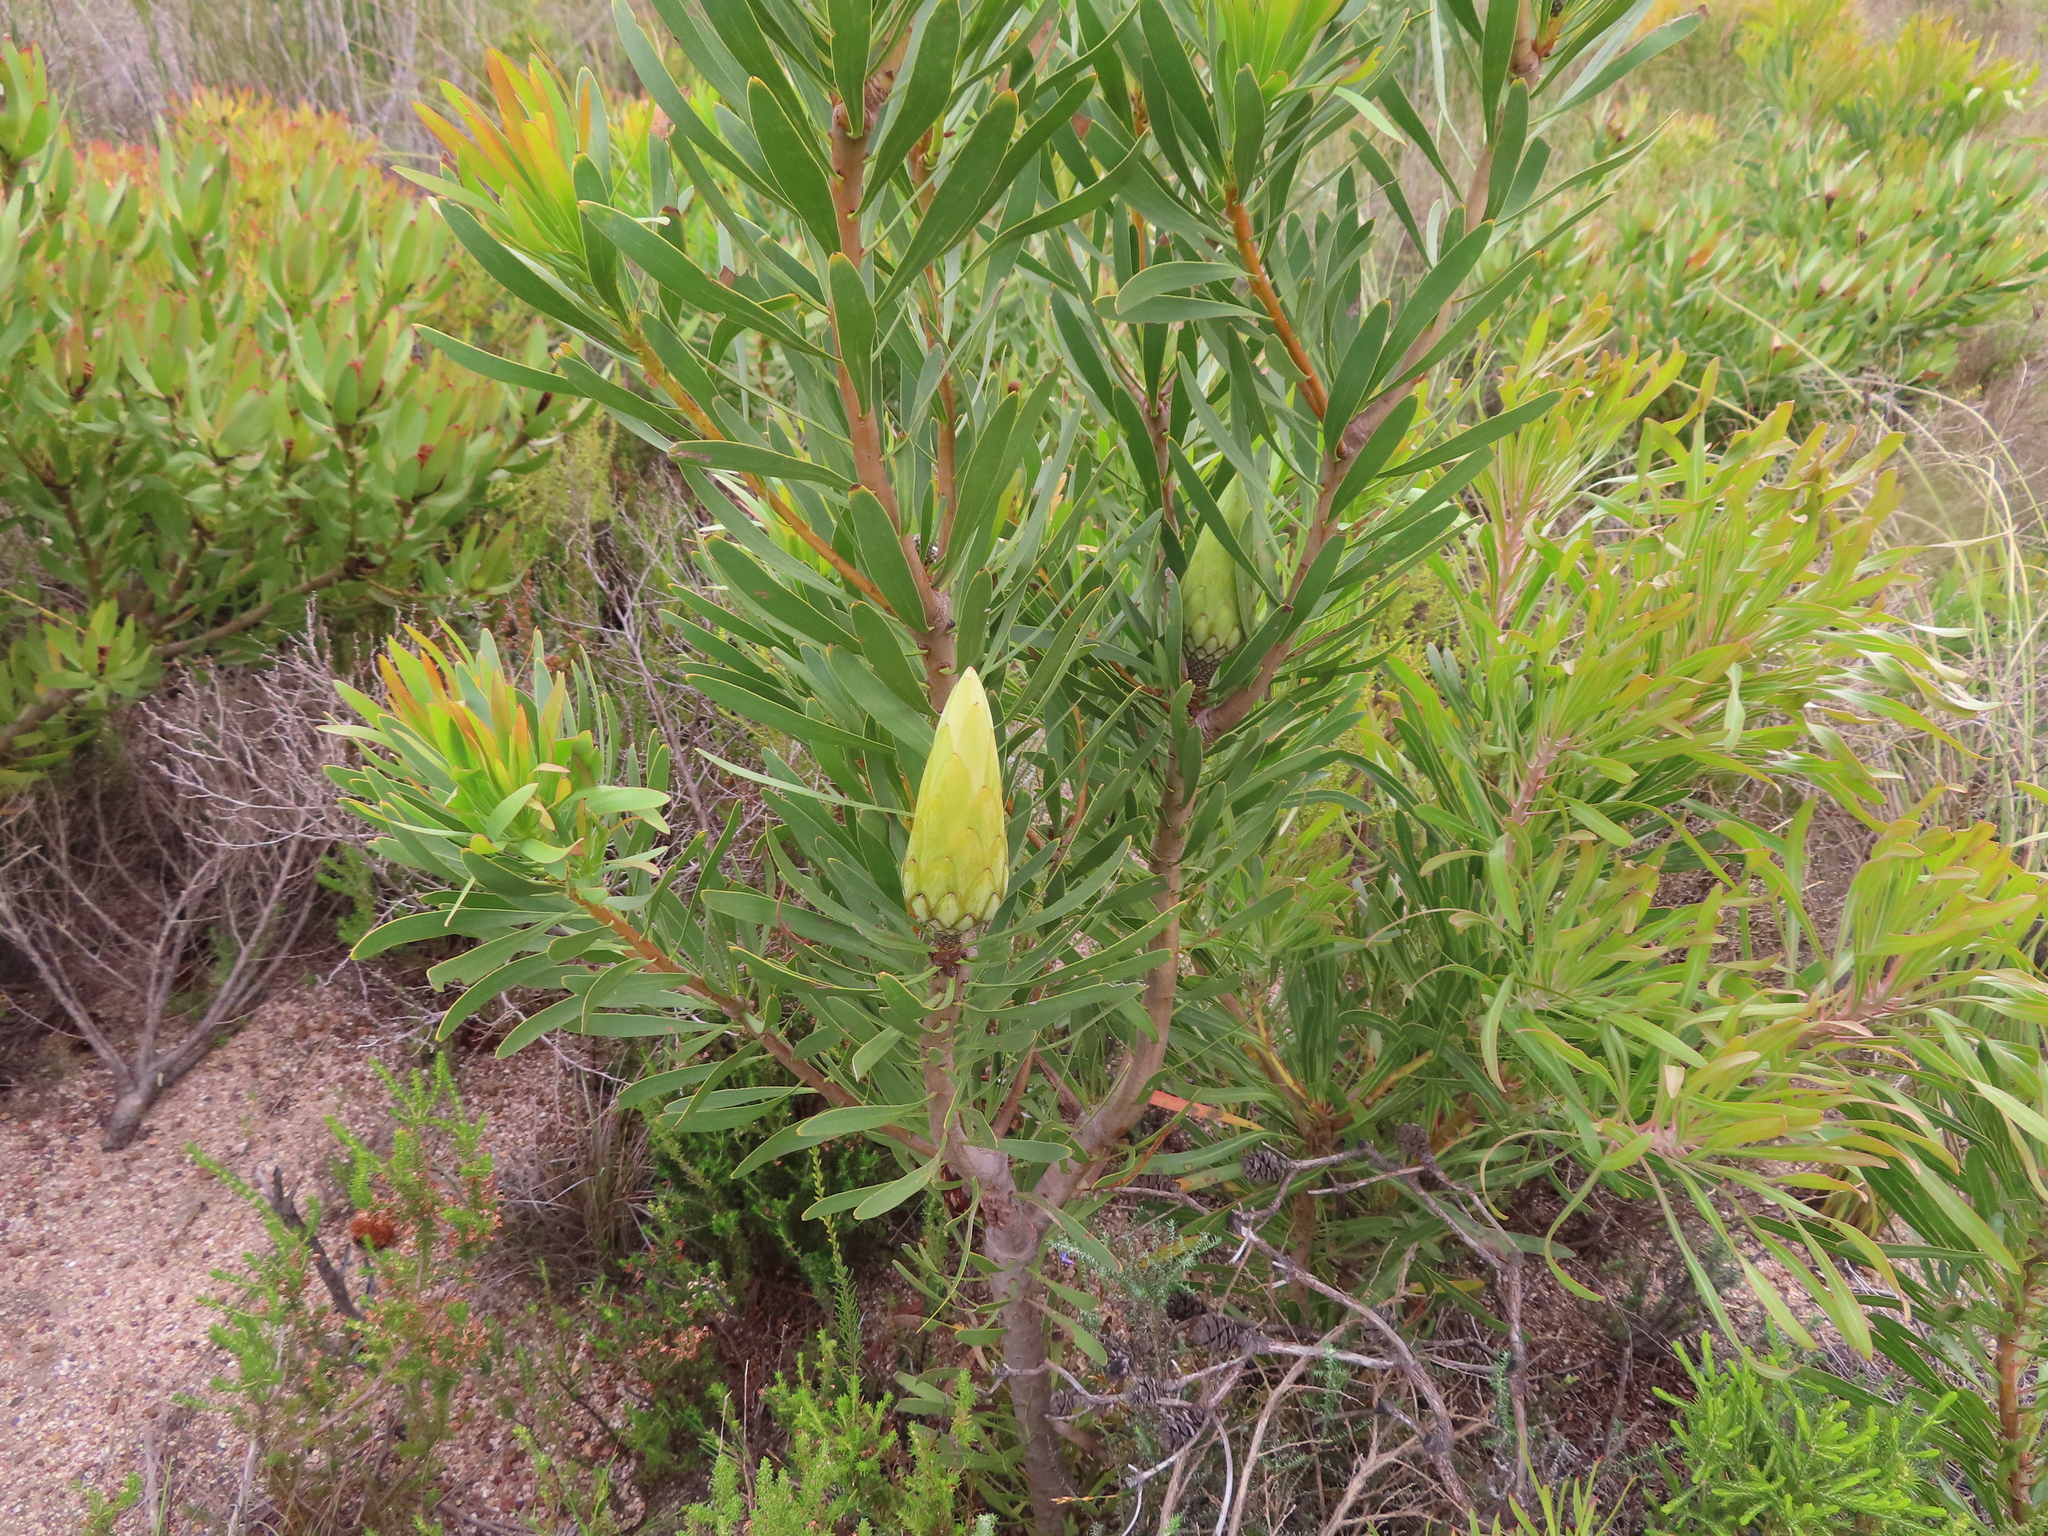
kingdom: Plantae
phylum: Tracheophyta
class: Magnoliopsida
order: Proteales
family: Proteaceae
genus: Protea
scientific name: Protea repens
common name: Sugarbush
